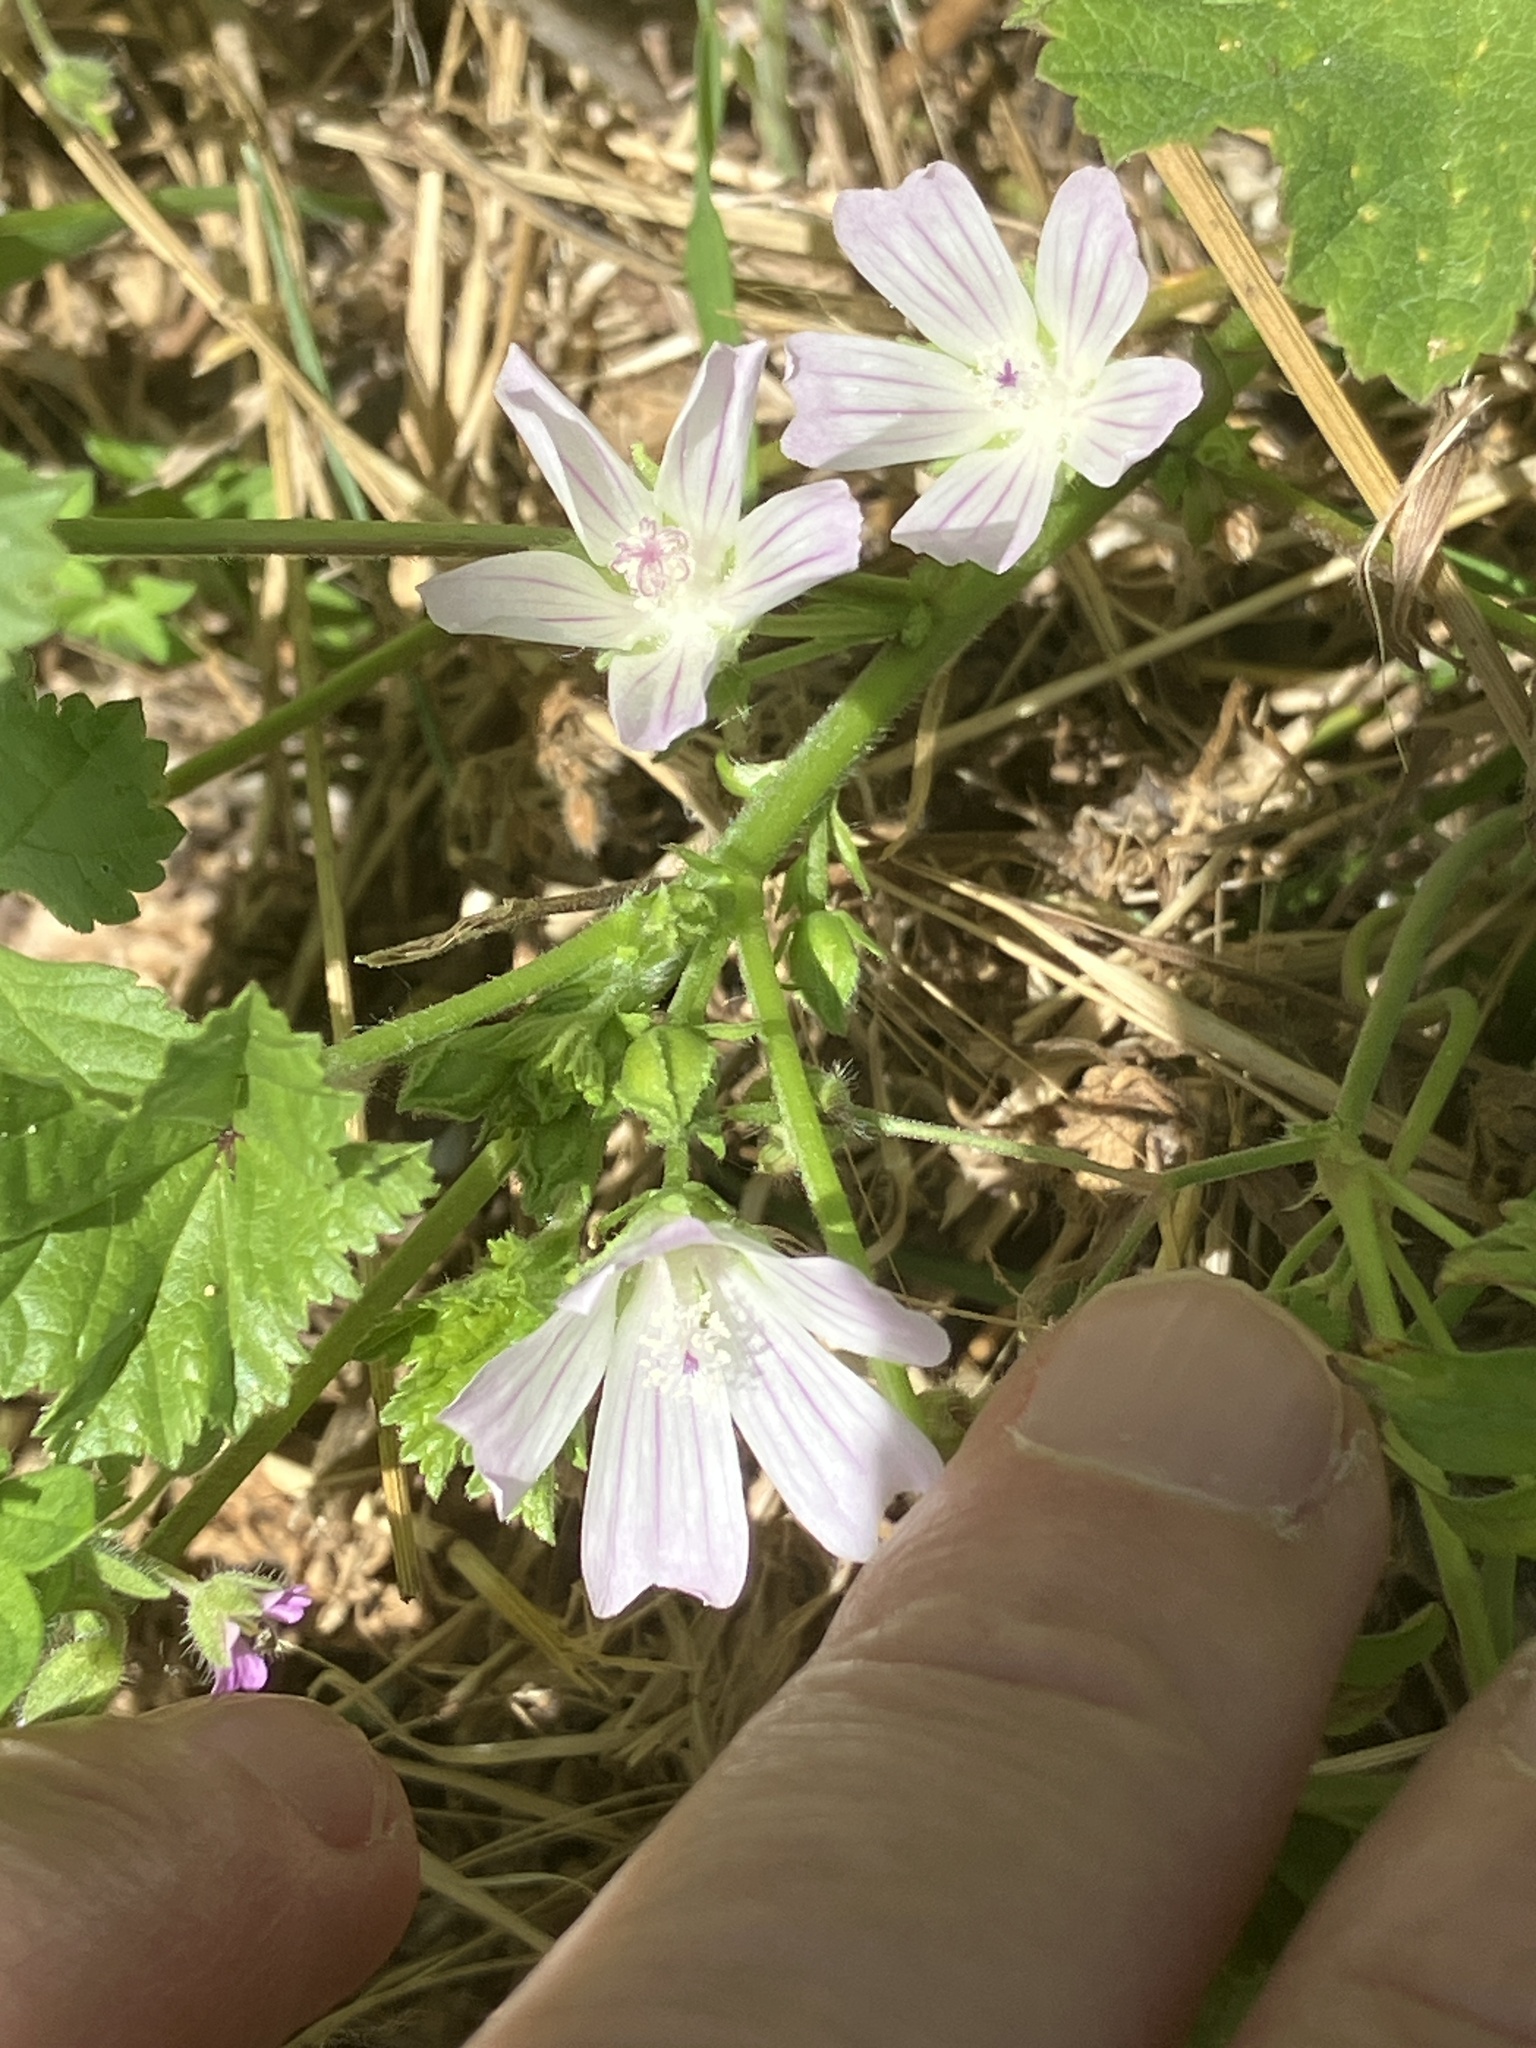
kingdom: Plantae
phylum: Tracheophyta
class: Magnoliopsida
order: Malvales
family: Malvaceae
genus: Malva
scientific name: Malva neglecta
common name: Common mallow
